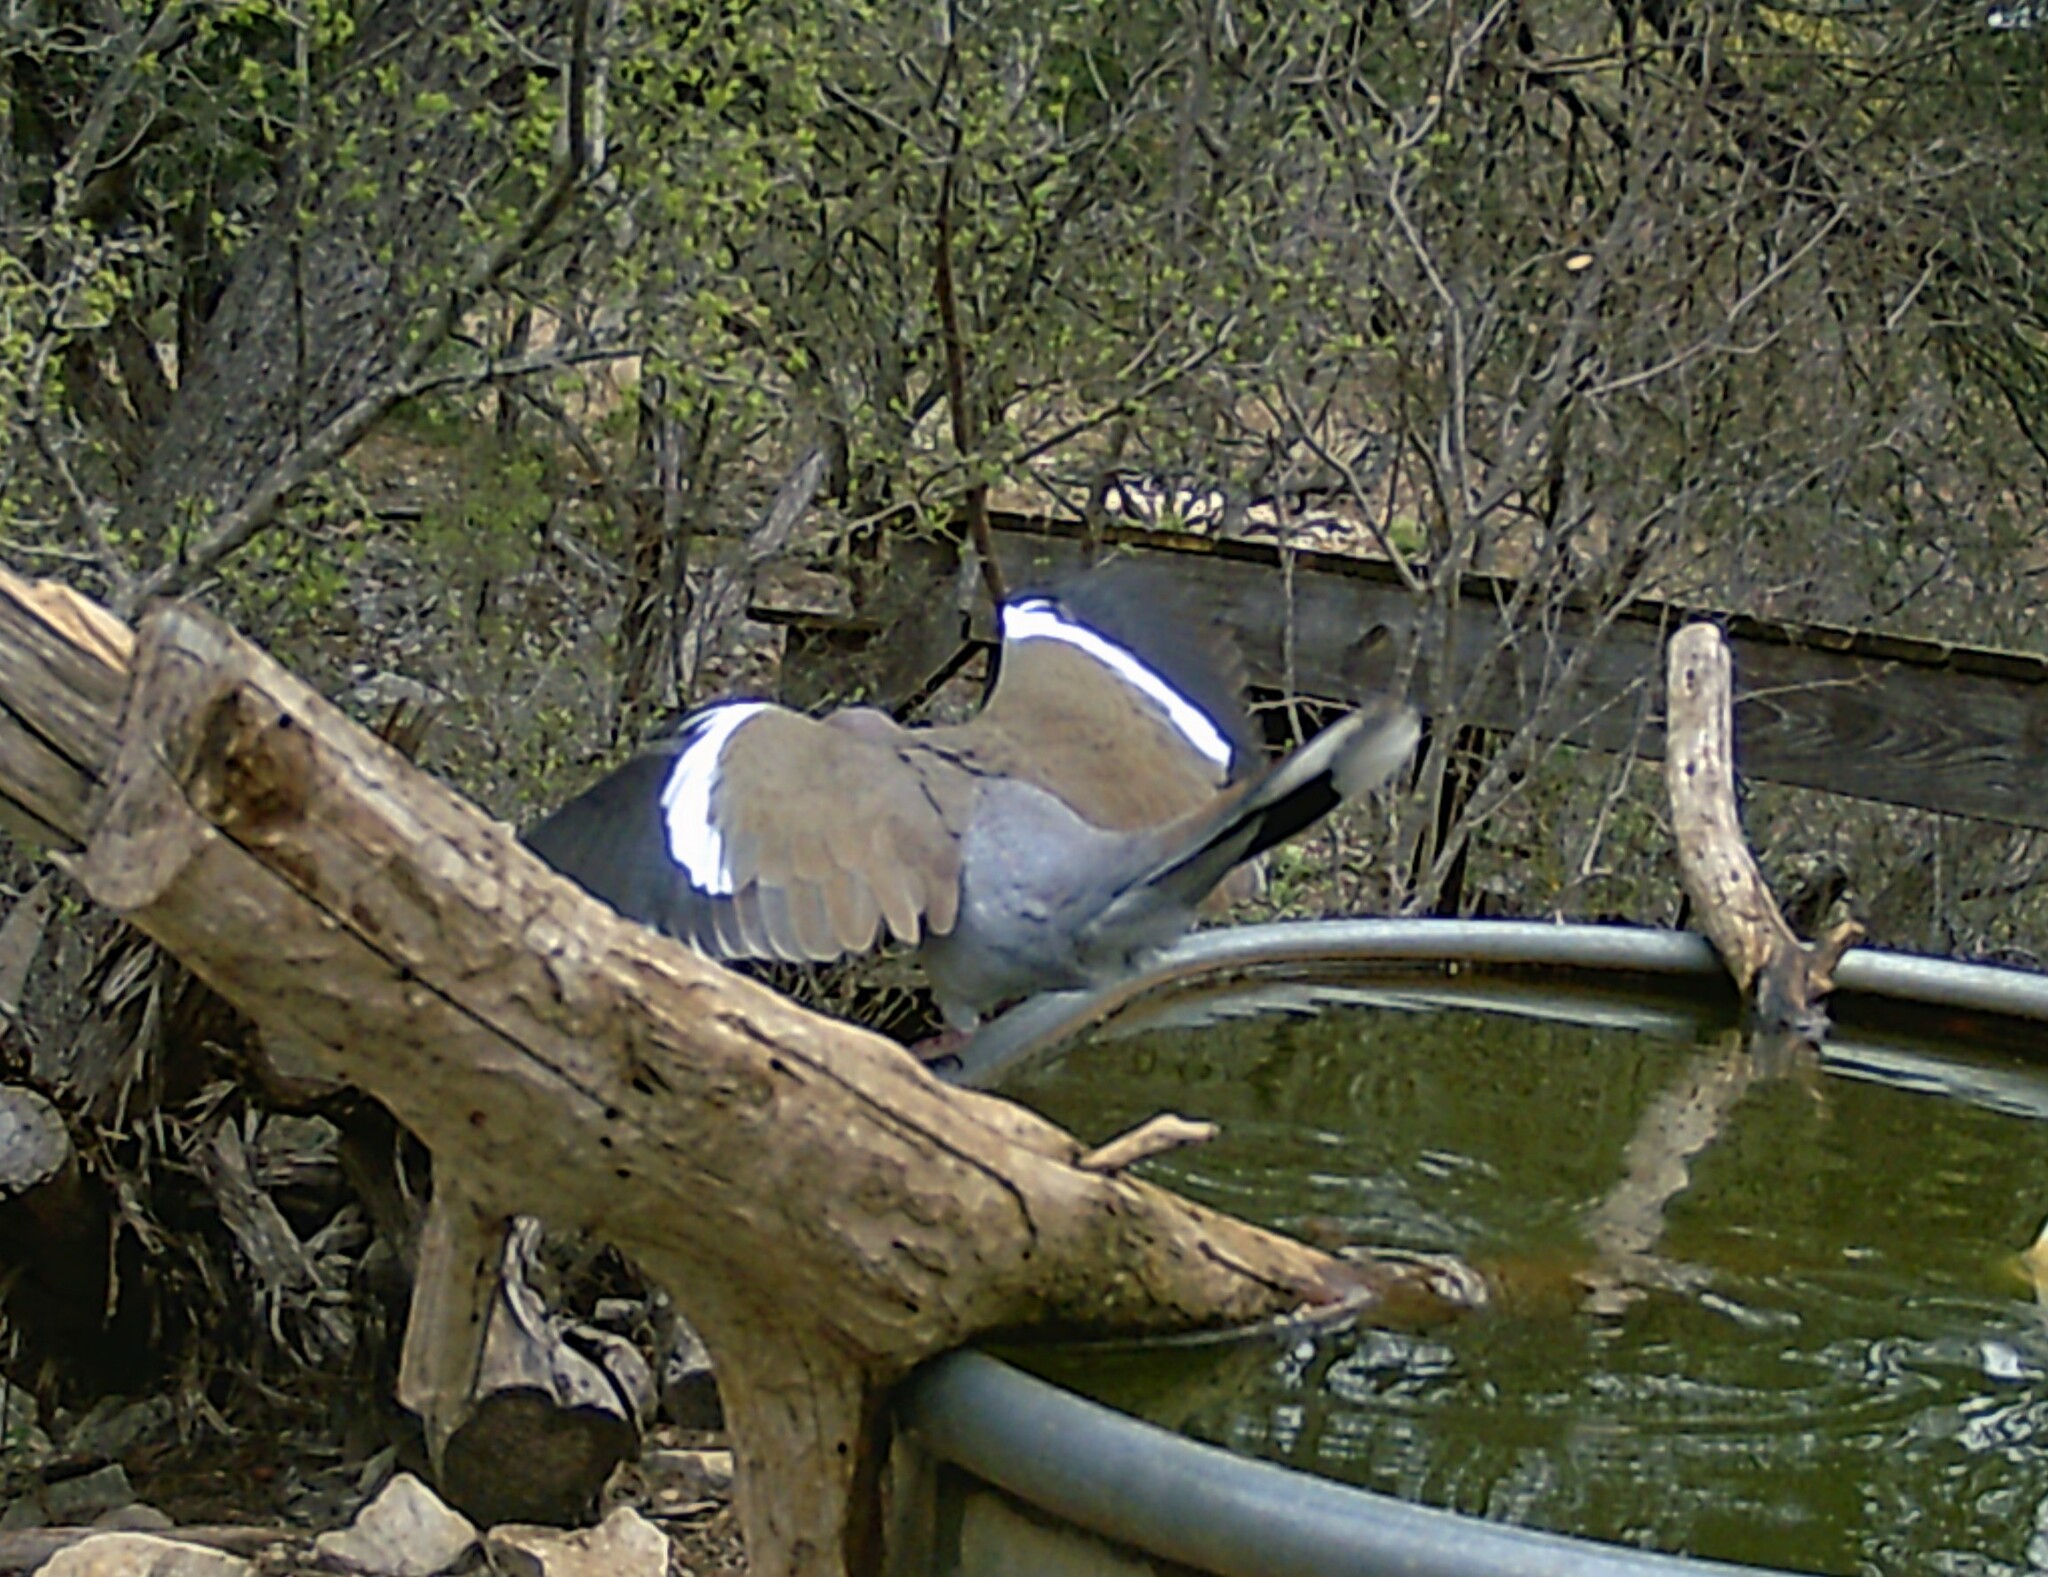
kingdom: Animalia
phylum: Chordata
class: Aves
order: Columbiformes
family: Columbidae
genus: Zenaida
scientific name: Zenaida asiatica
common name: White-winged dove
